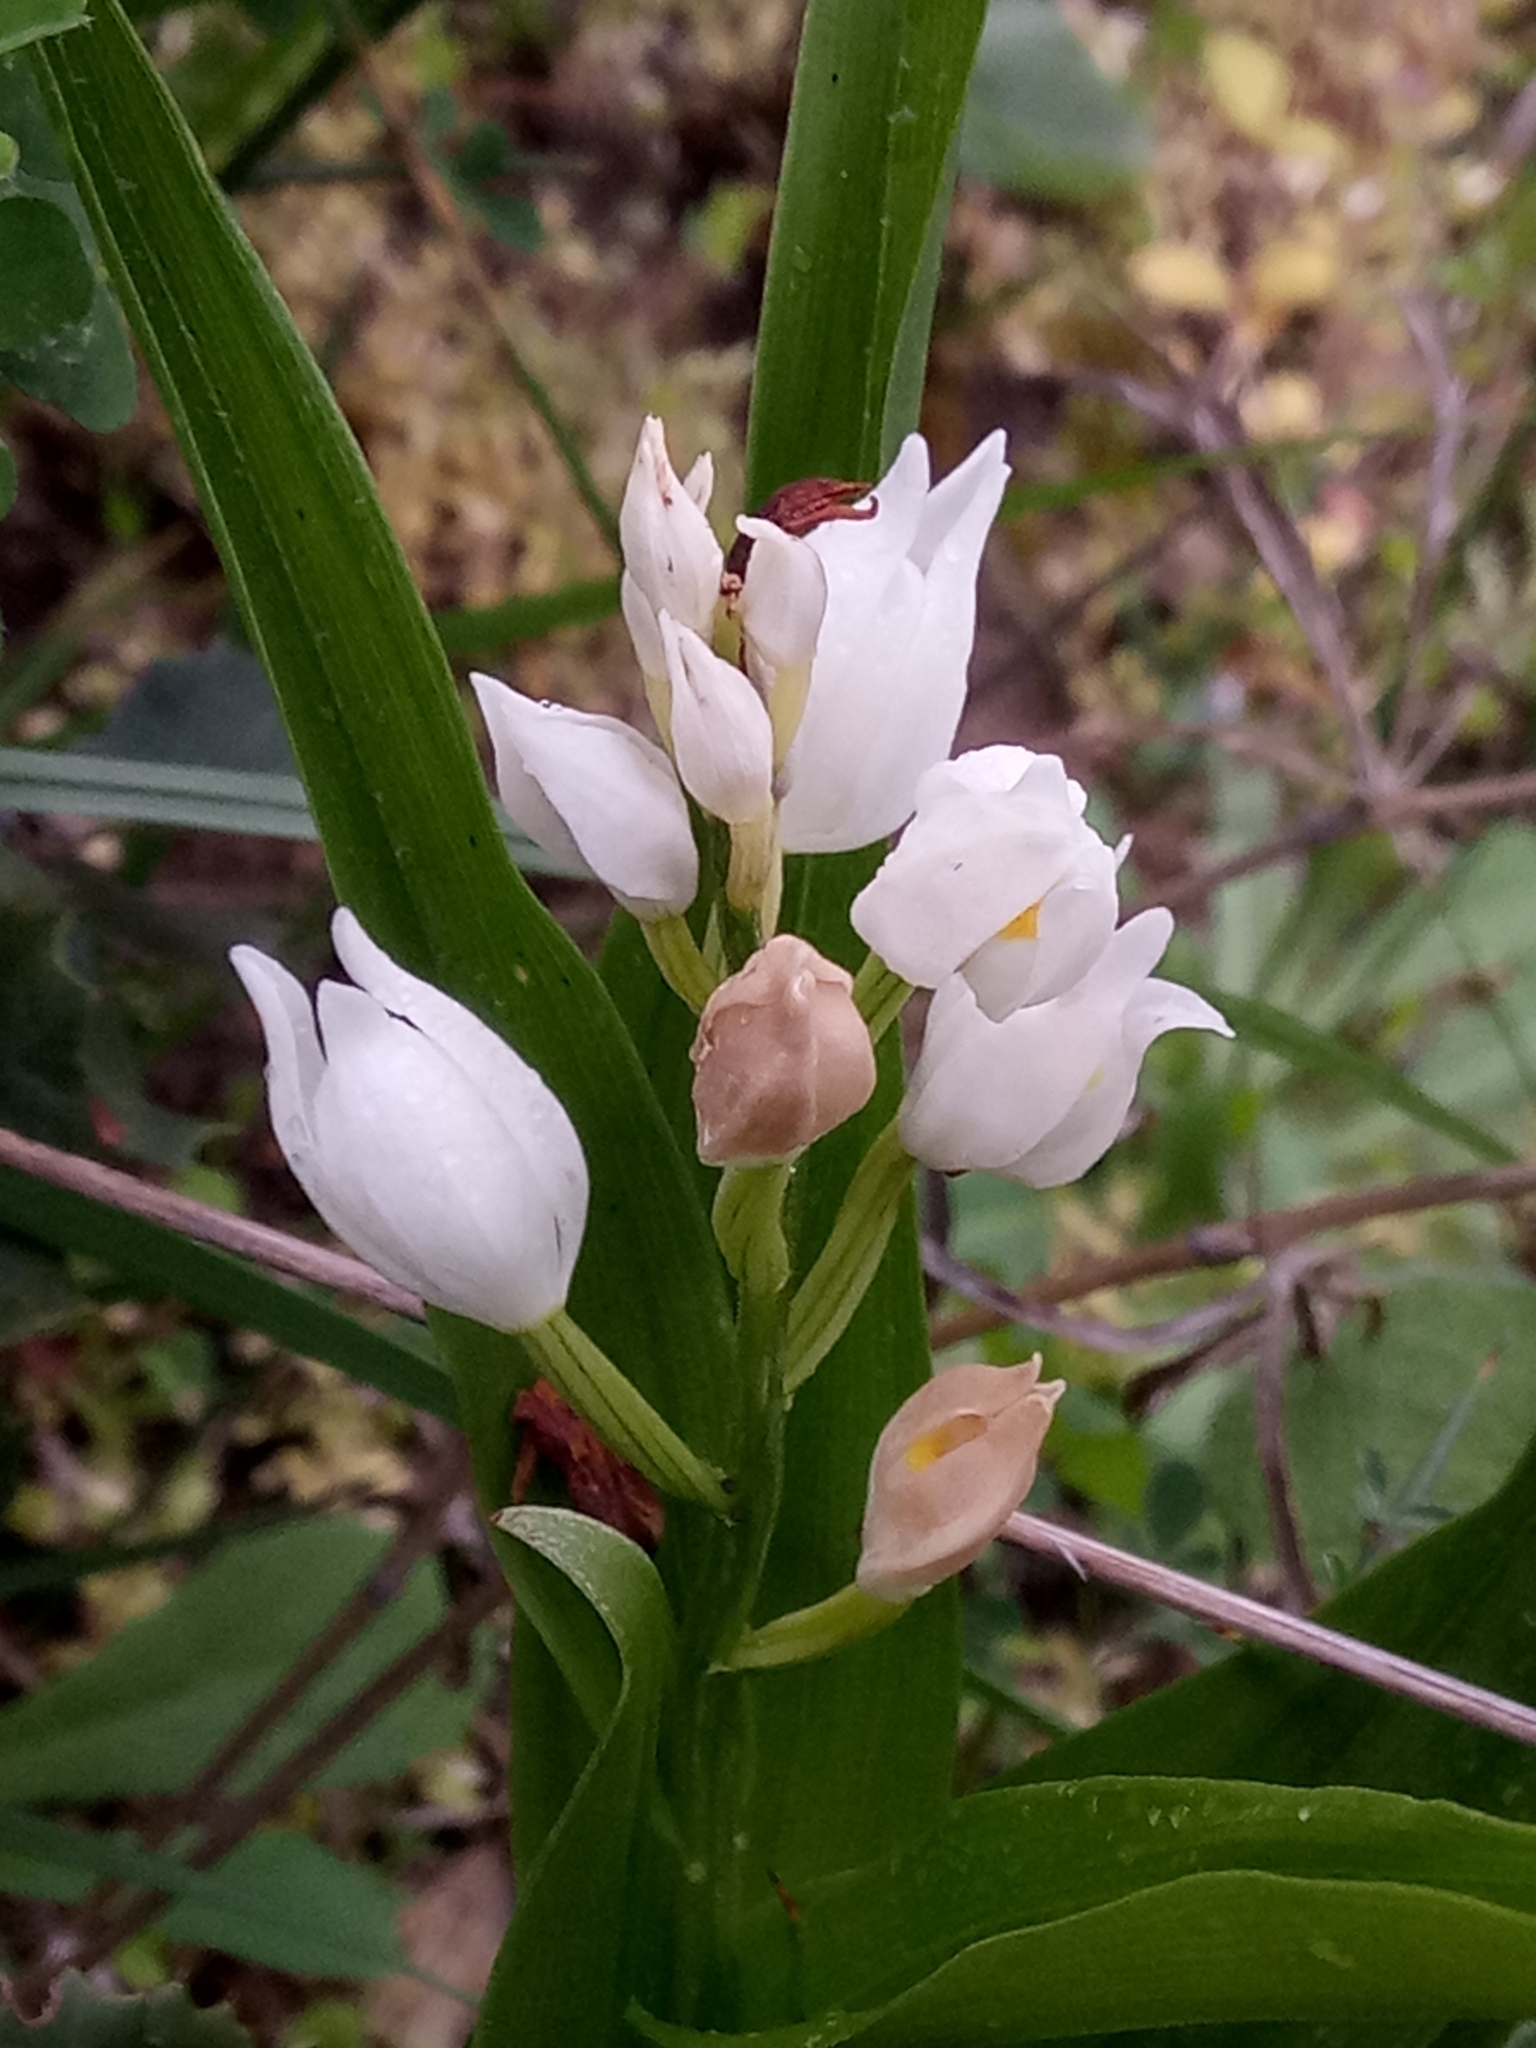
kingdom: Plantae
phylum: Tracheophyta
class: Liliopsida
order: Asparagales
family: Orchidaceae
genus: Cephalanthera
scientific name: Cephalanthera longifolia
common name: Narrow-leaved helleborine
